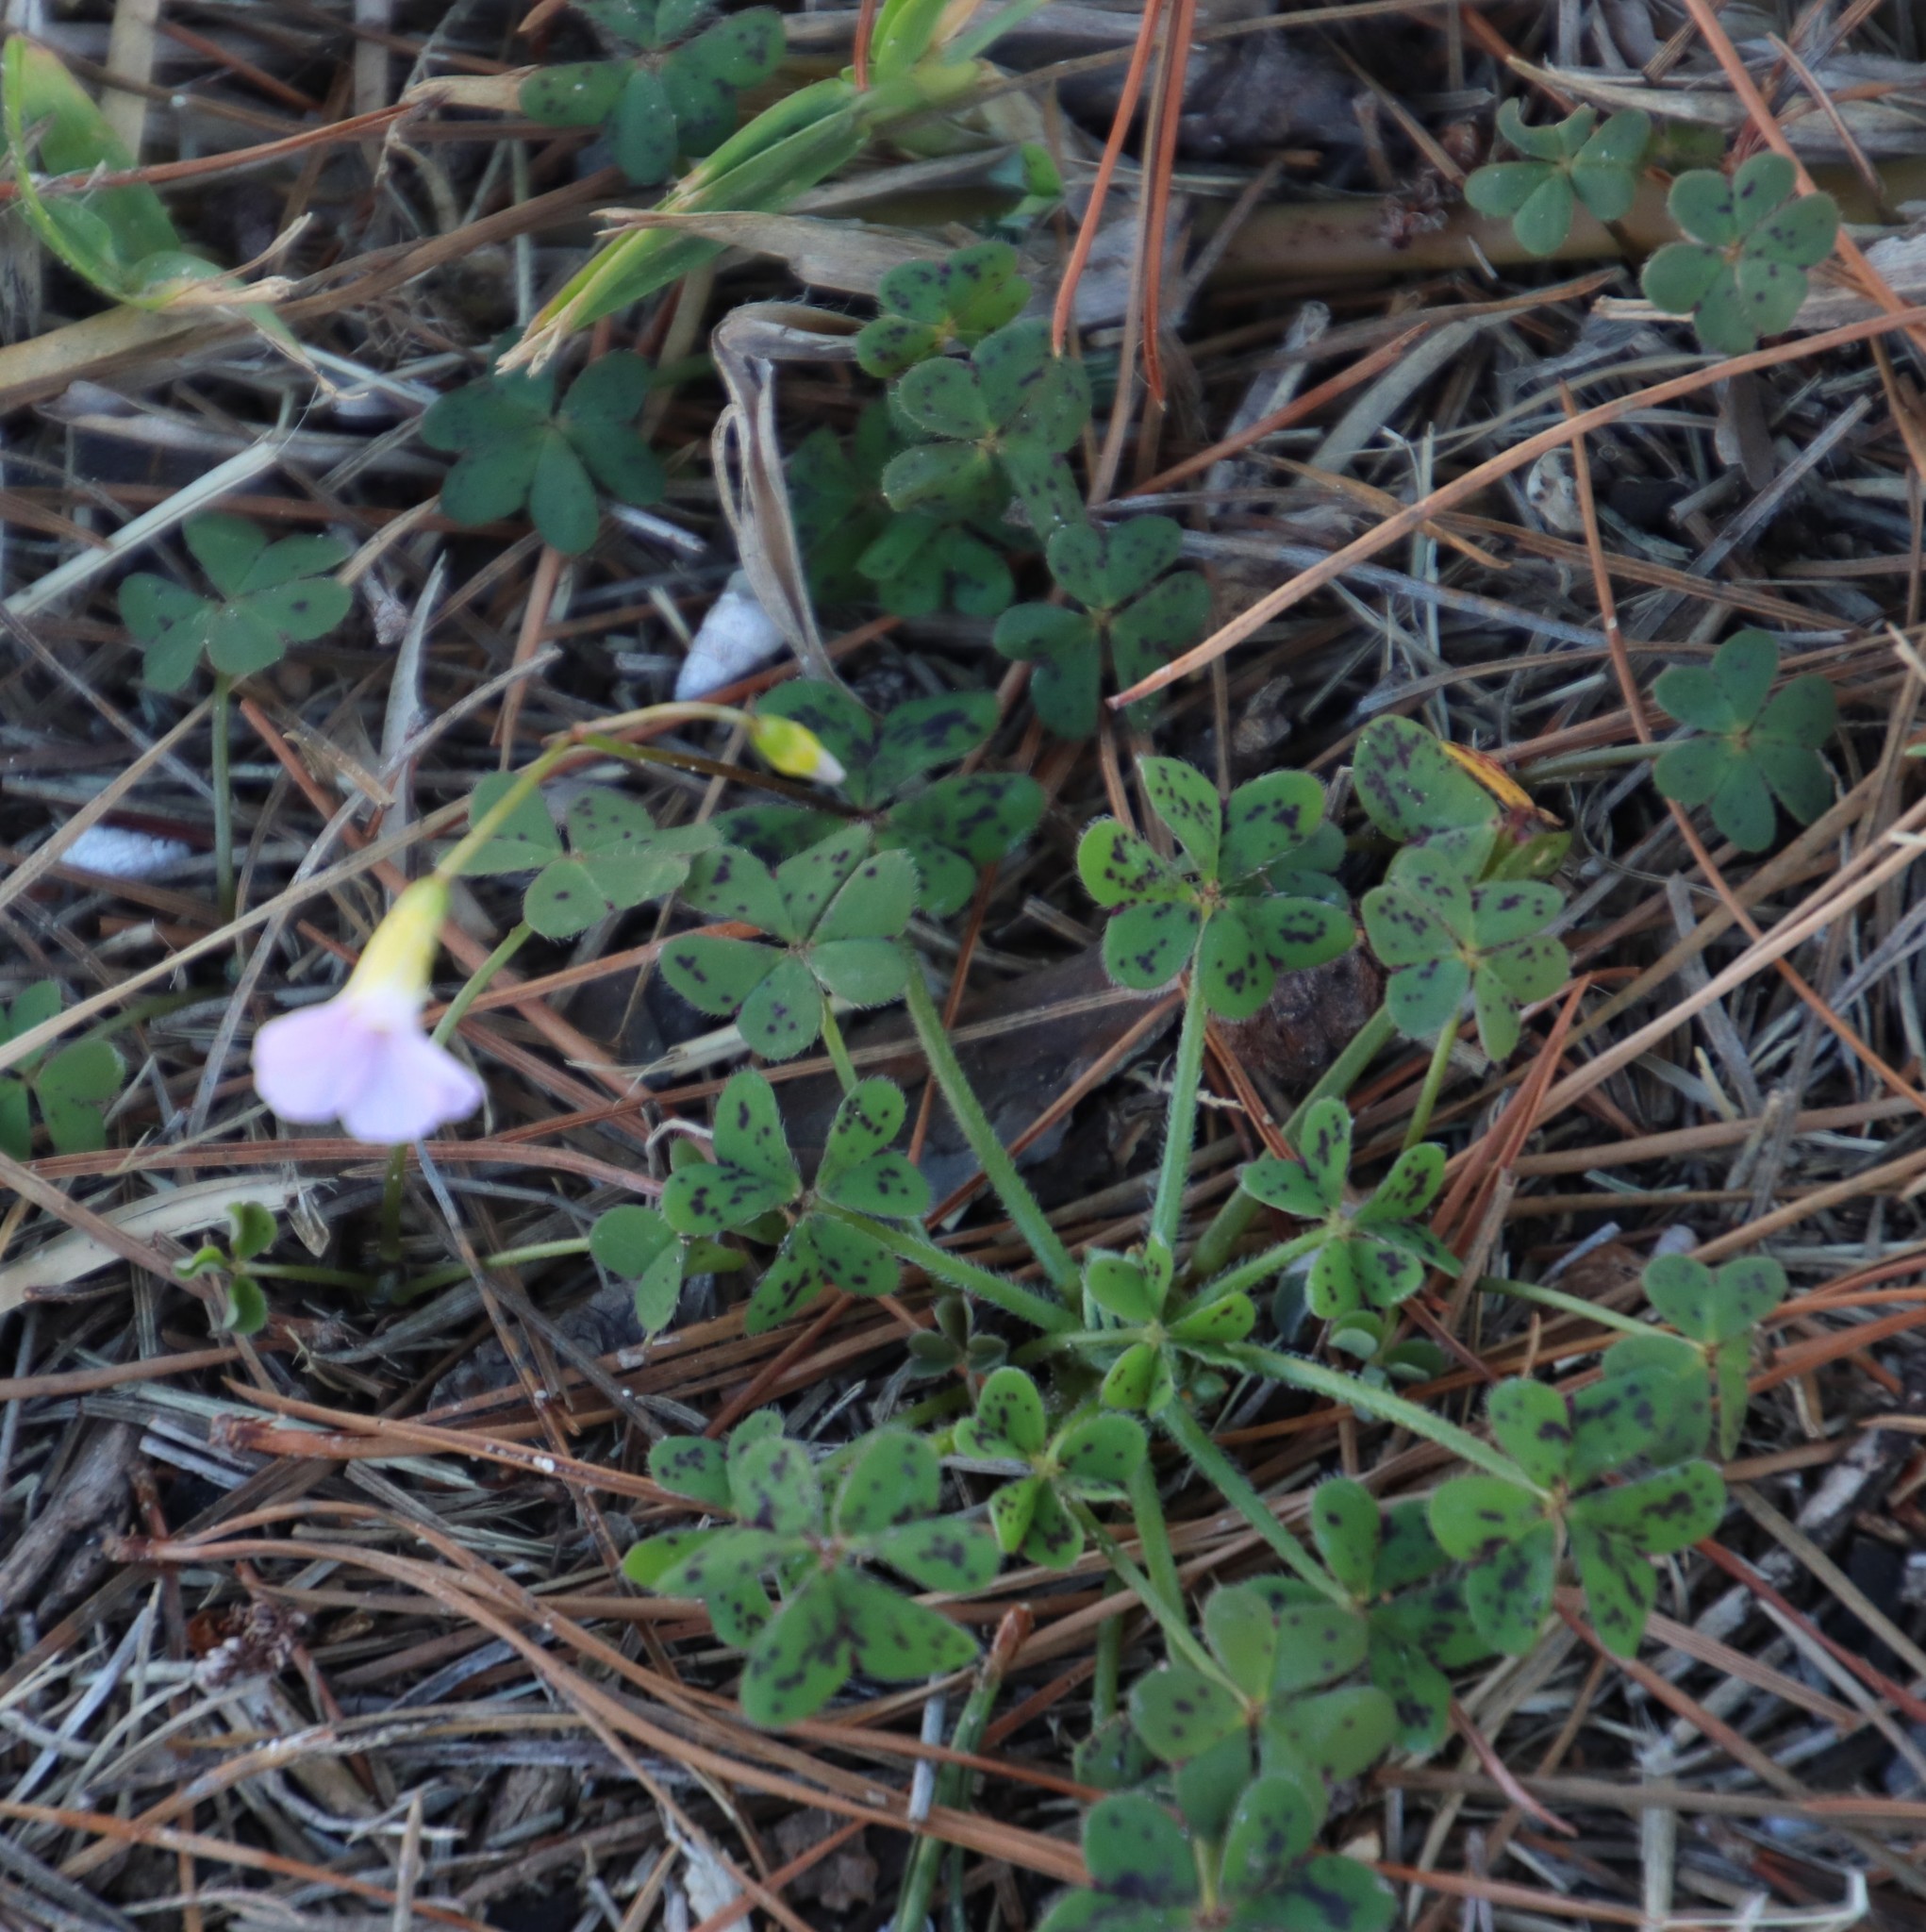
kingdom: Plantae
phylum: Tracheophyta
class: Magnoliopsida
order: Oxalidales
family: Oxalidaceae
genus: Oxalis
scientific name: Oxalis caprina
